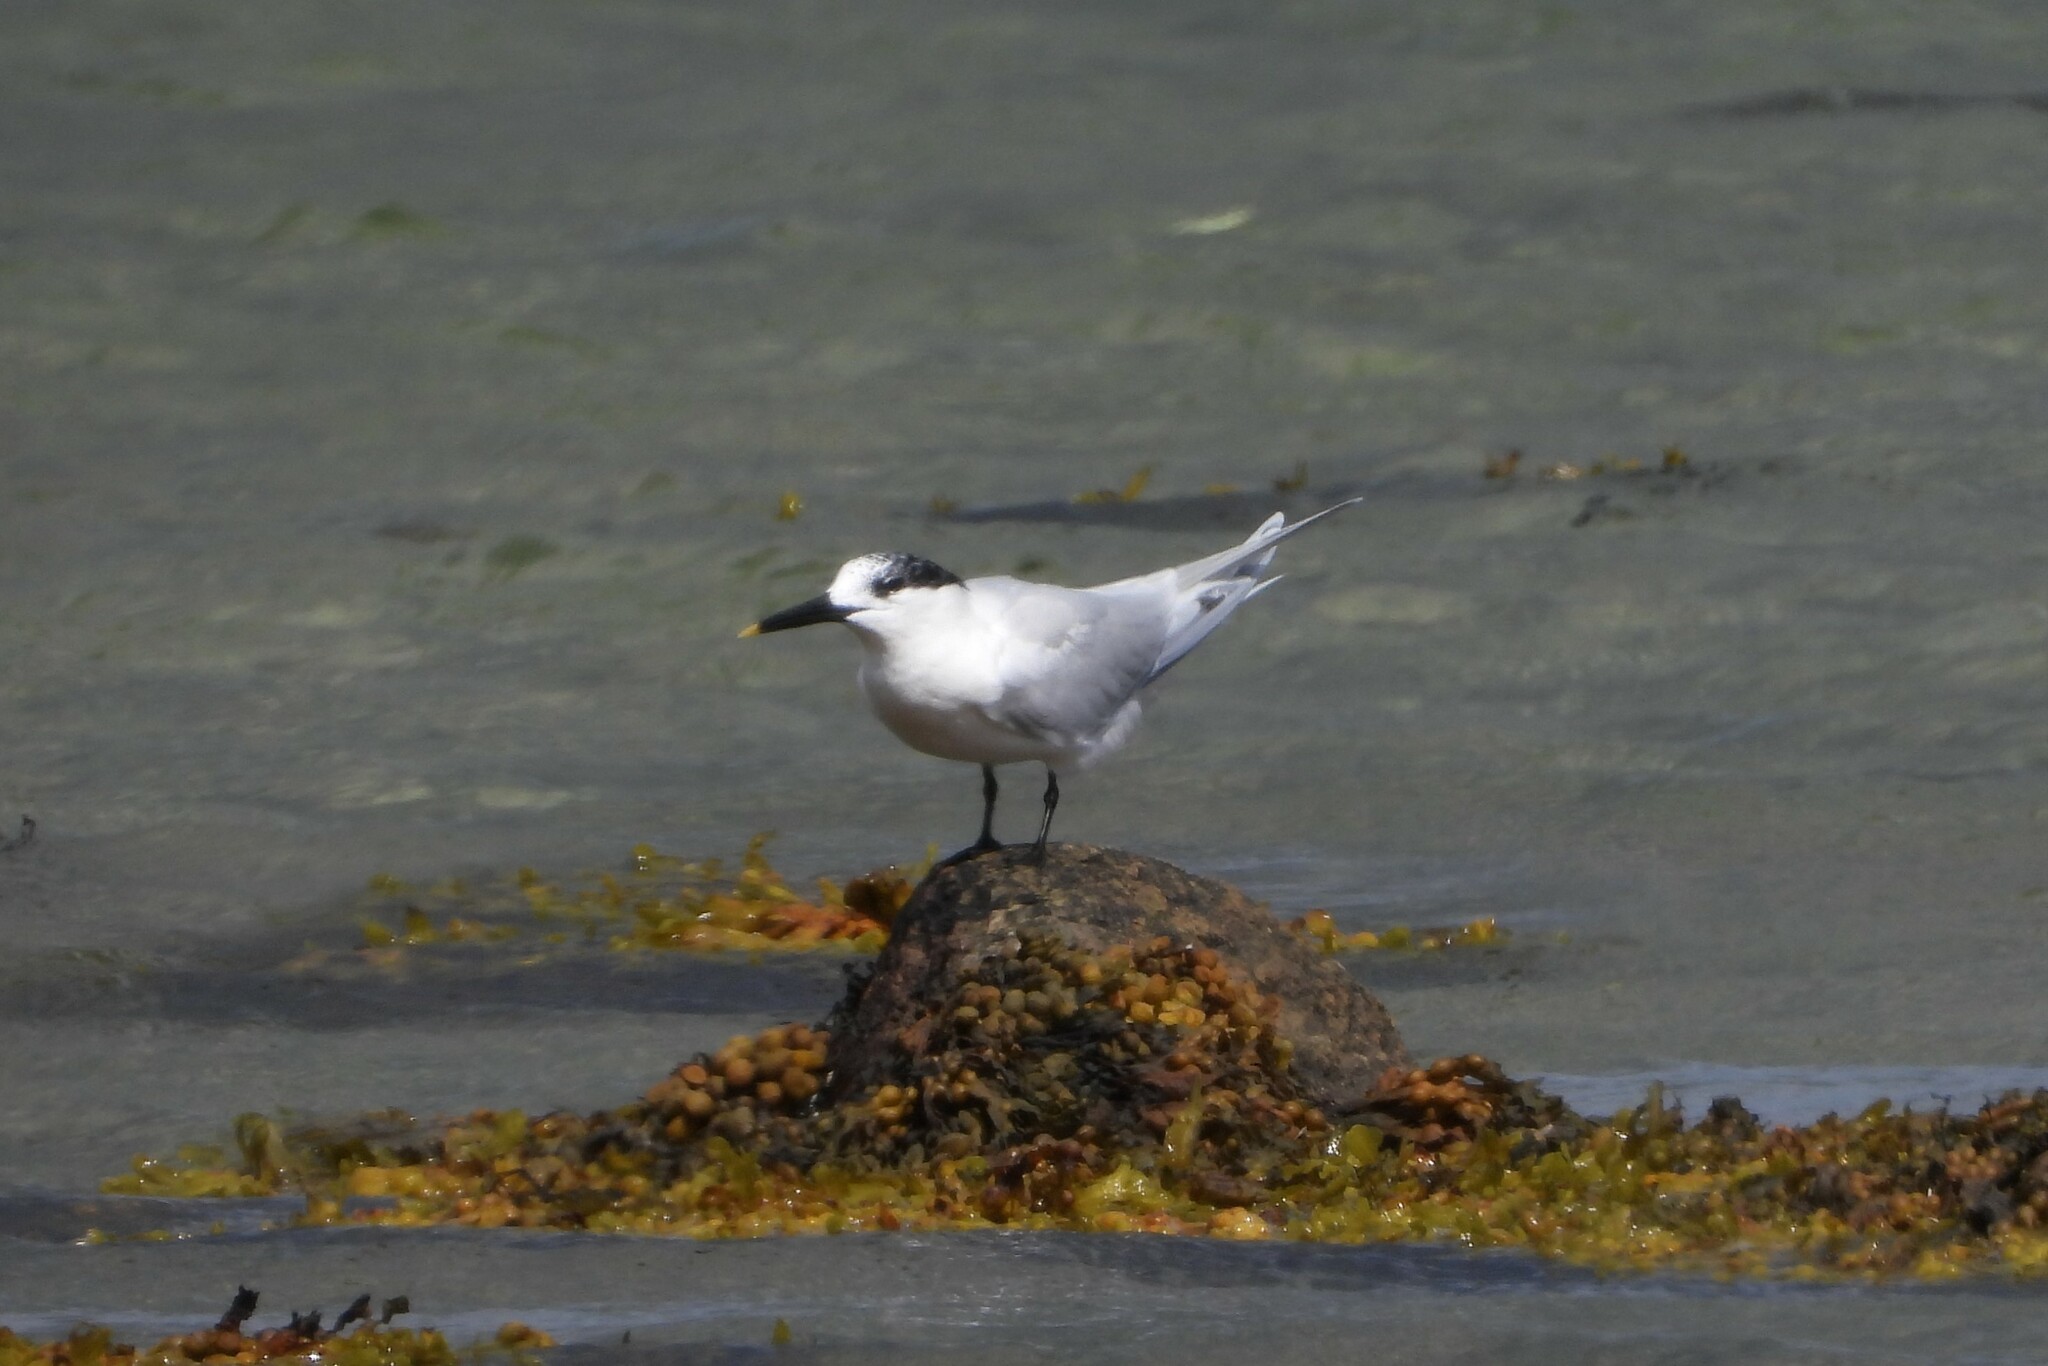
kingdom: Animalia
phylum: Chordata
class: Aves
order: Charadriiformes
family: Laridae
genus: Thalasseus
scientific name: Thalasseus sandvicensis
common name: Sandwich tern
